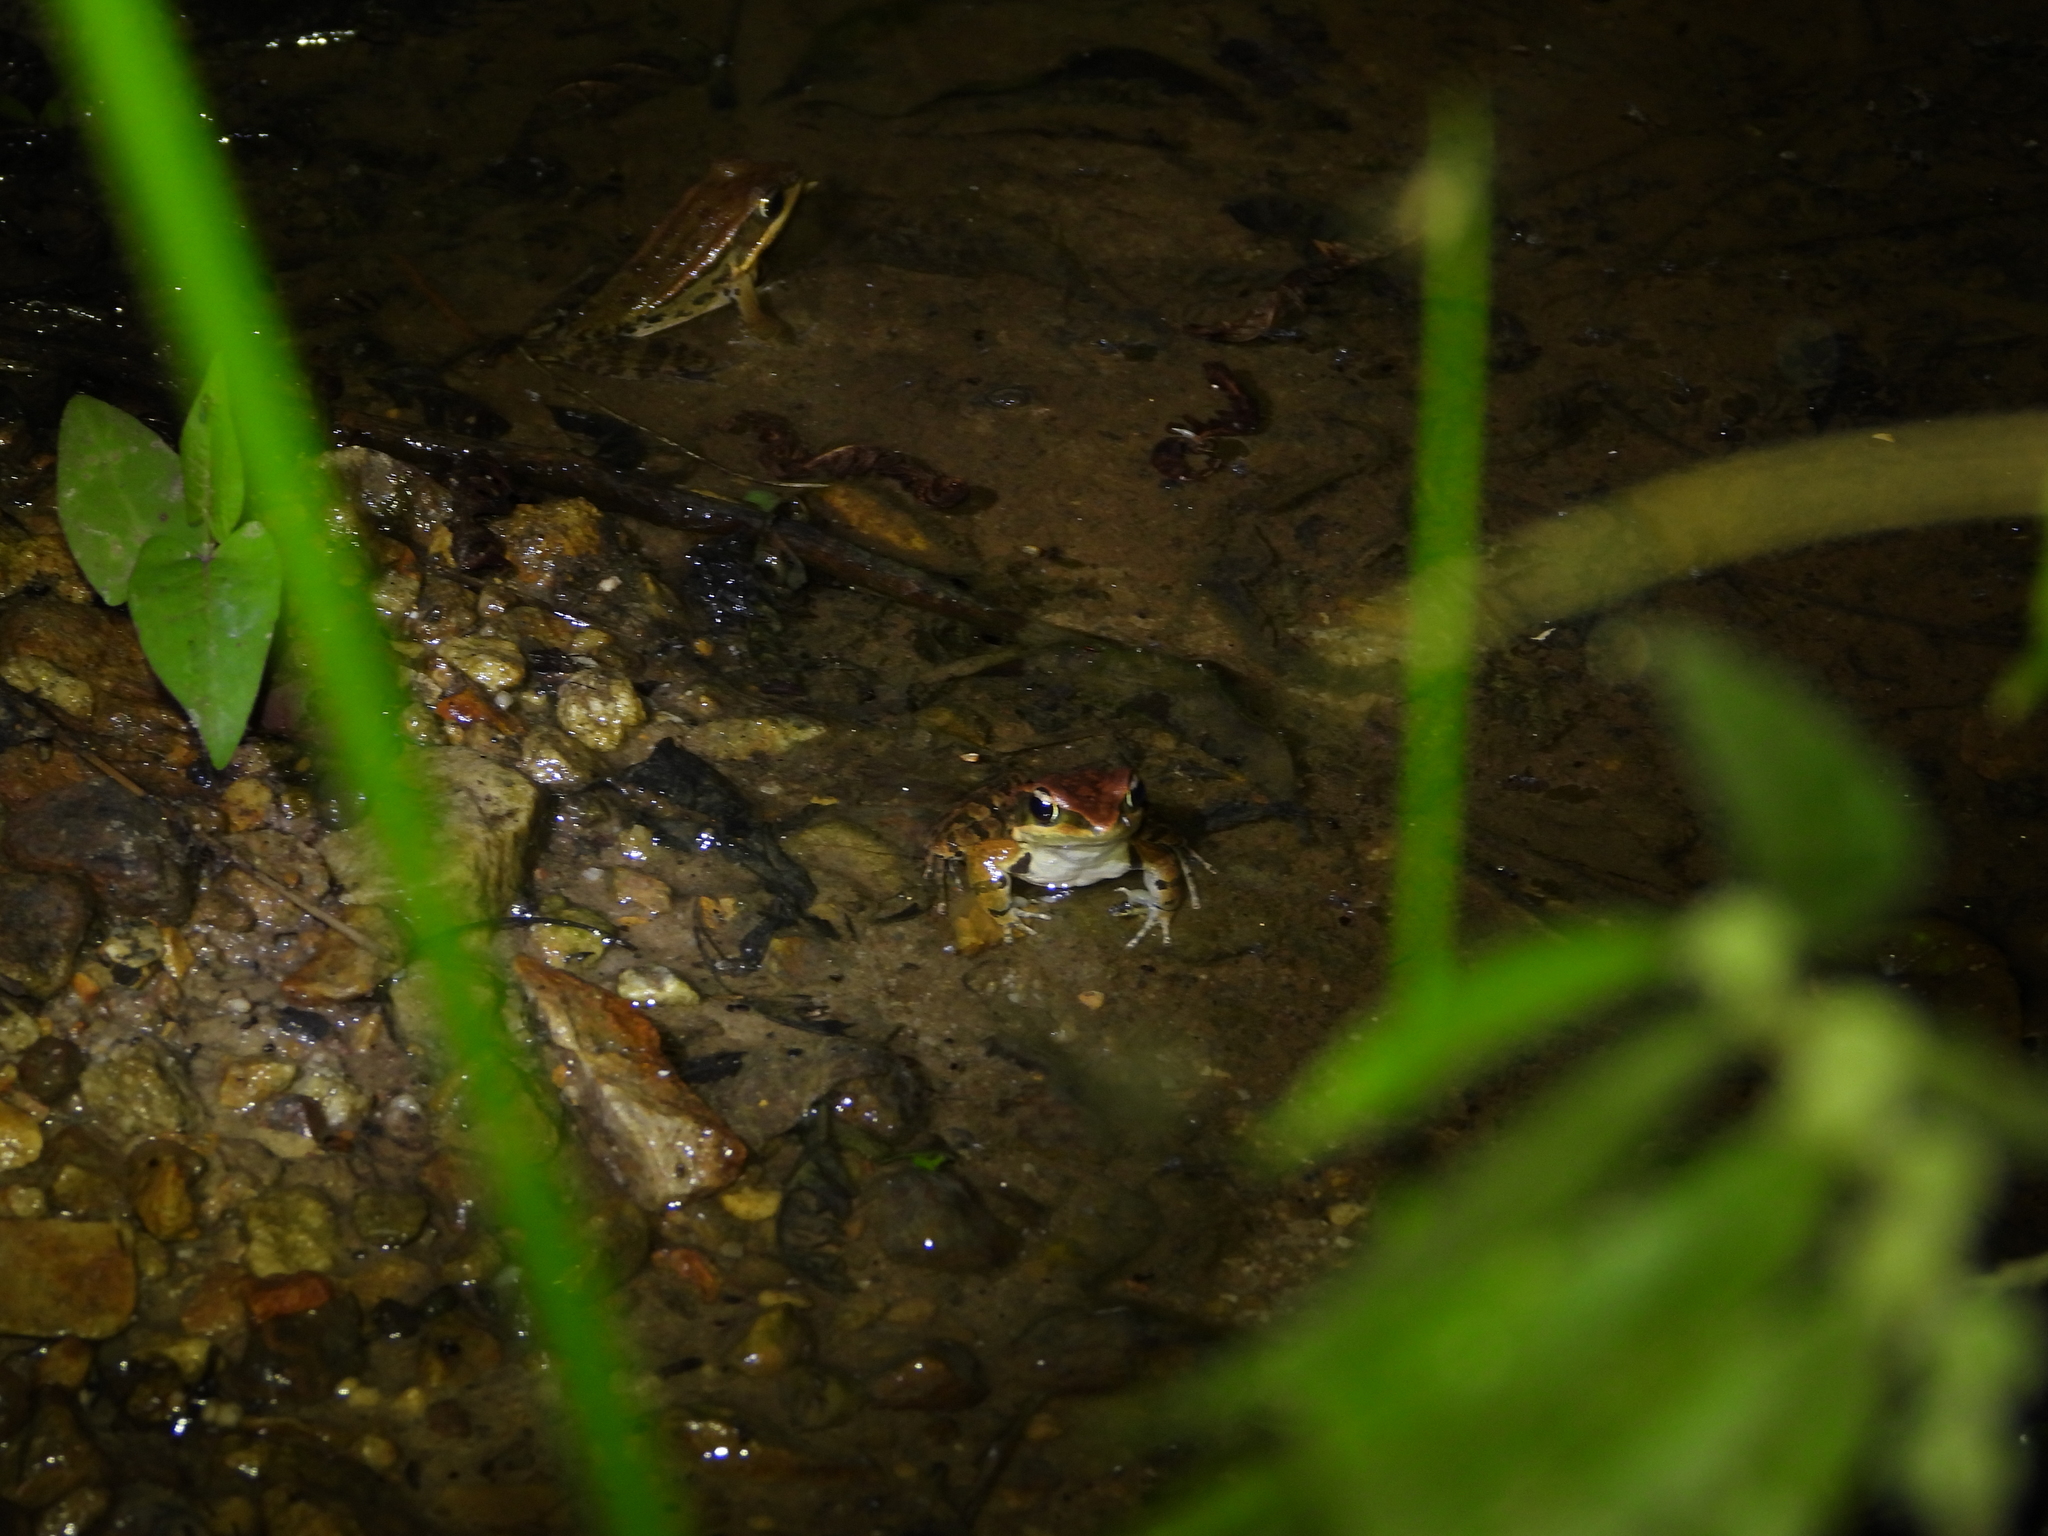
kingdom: Animalia
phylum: Chordata
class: Amphibia
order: Anura
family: Ranidae
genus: Hylarana
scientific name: Hylarana latouchii
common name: Broad-folded frog
